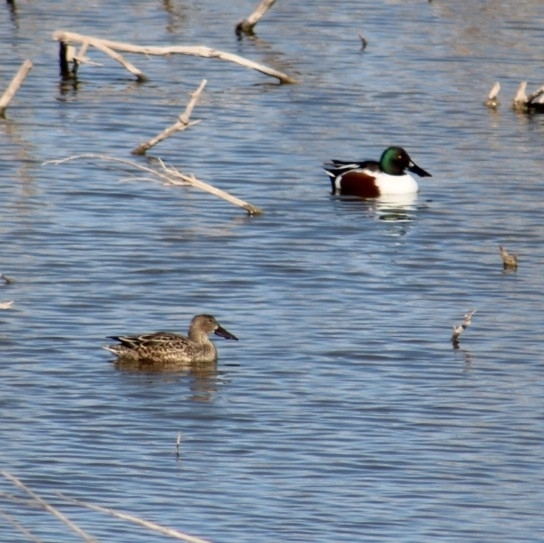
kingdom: Animalia
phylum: Chordata
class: Aves
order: Anseriformes
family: Anatidae
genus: Spatula
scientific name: Spatula clypeata
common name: Northern shoveler
